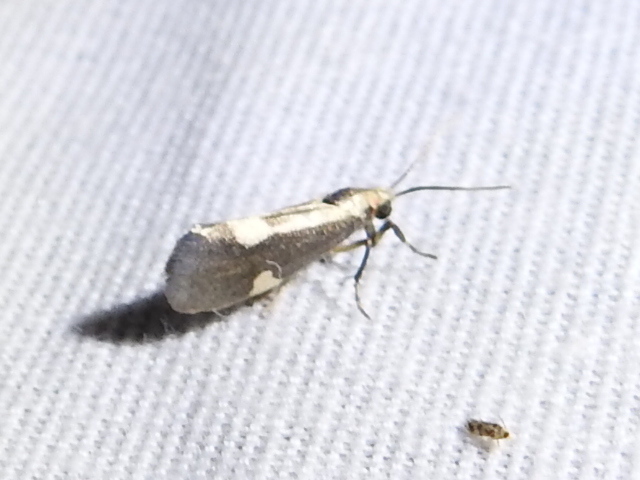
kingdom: Animalia
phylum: Arthropoda
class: Insecta
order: Lepidoptera
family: Erebidae
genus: Cisthene
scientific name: Cisthene conjuncta
